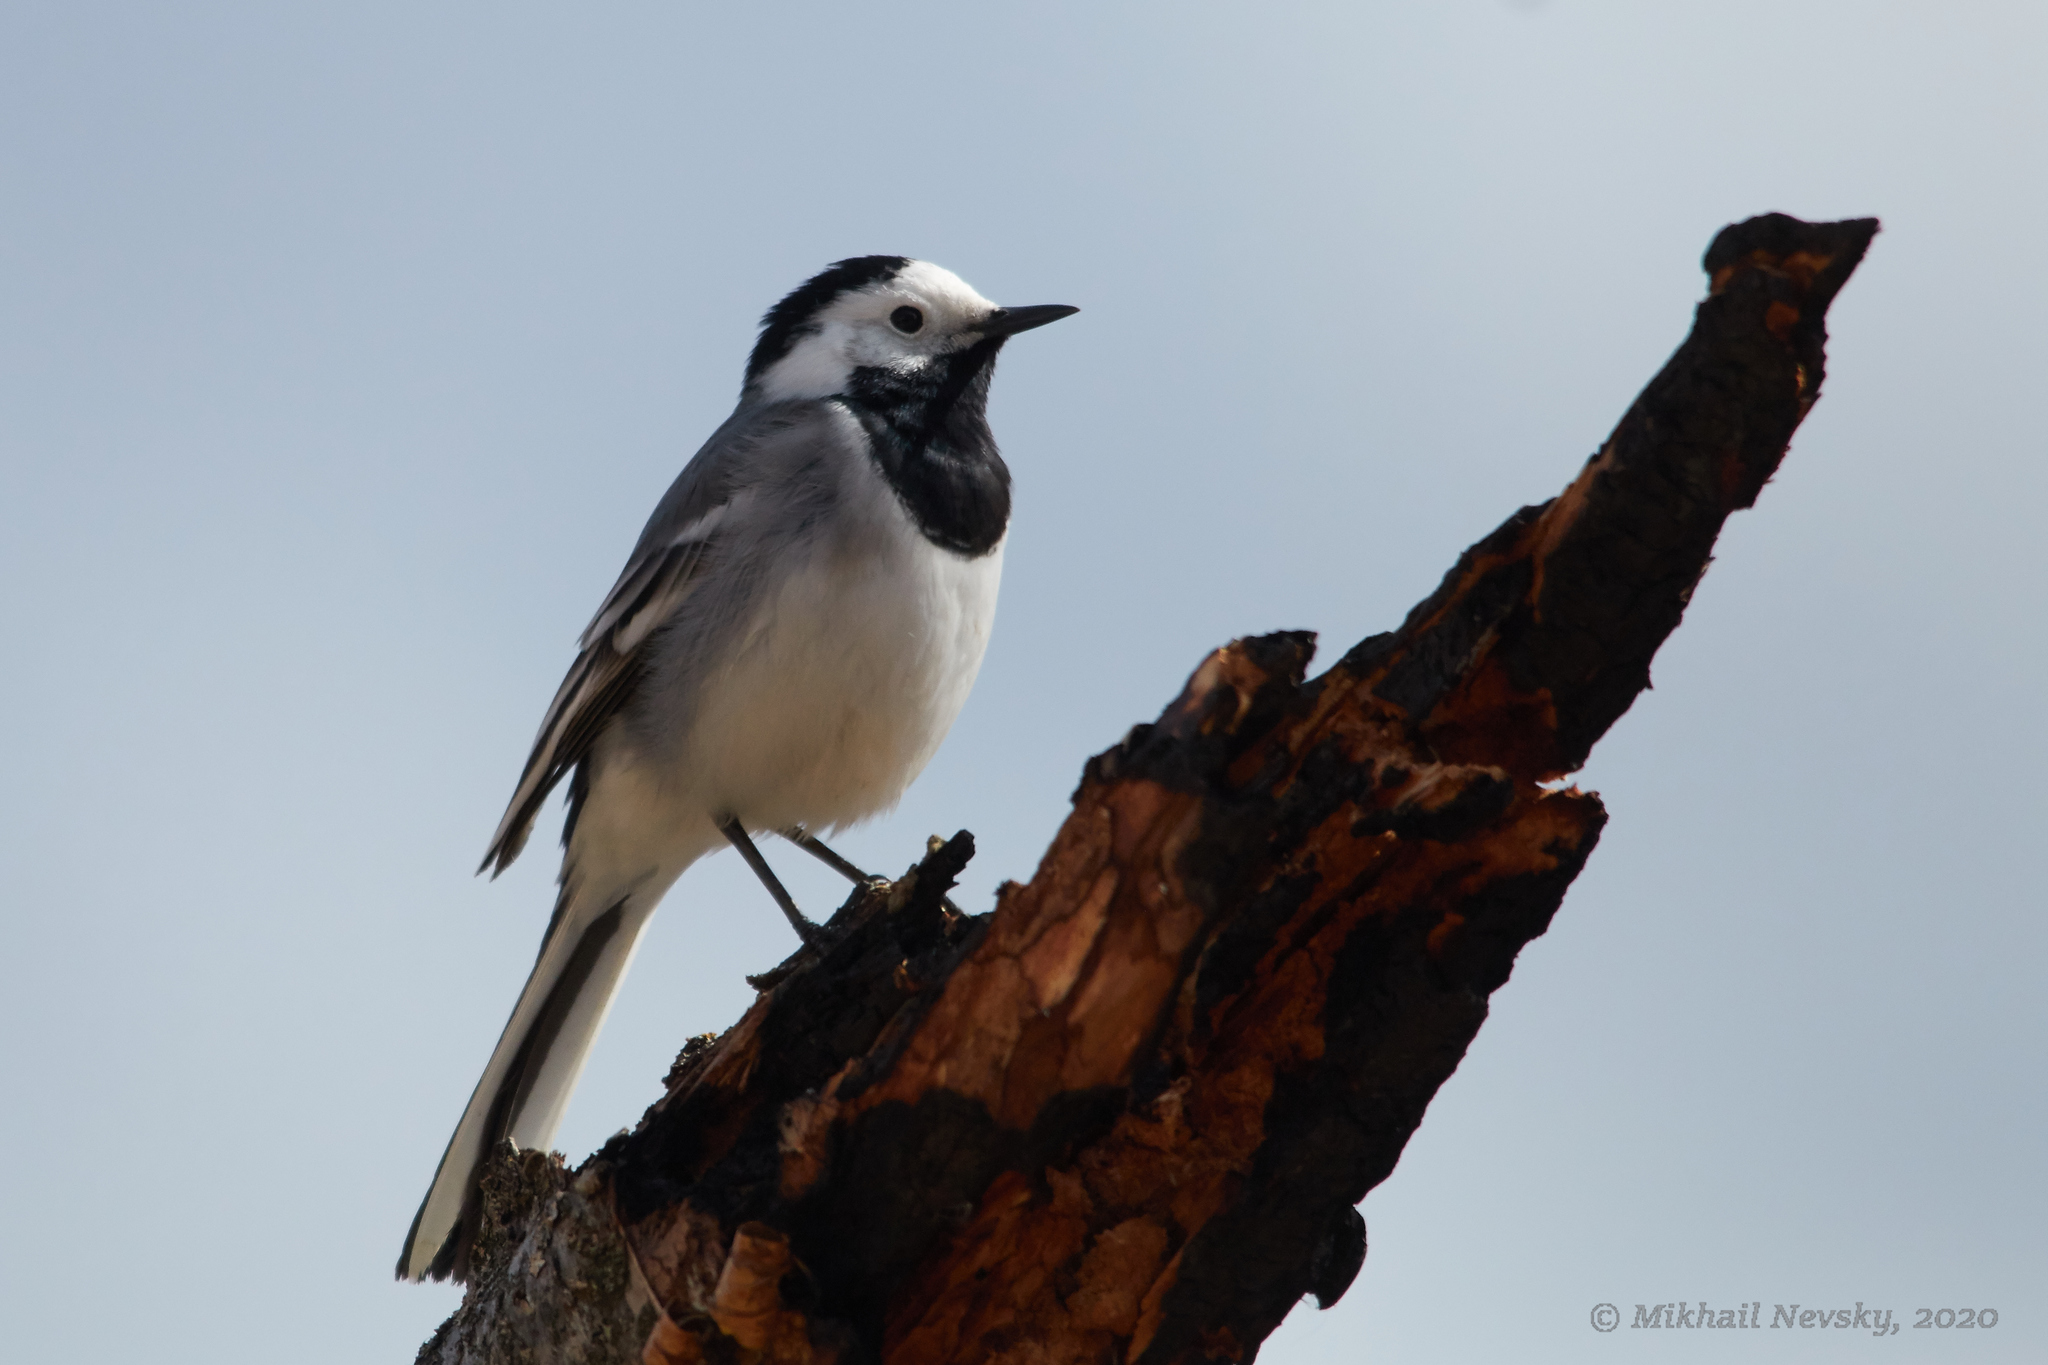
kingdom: Animalia
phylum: Chordata
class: Aves
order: Passeriformes
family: Motacillidae
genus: Motacilla
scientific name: Motacilla alba
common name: White wagtail
